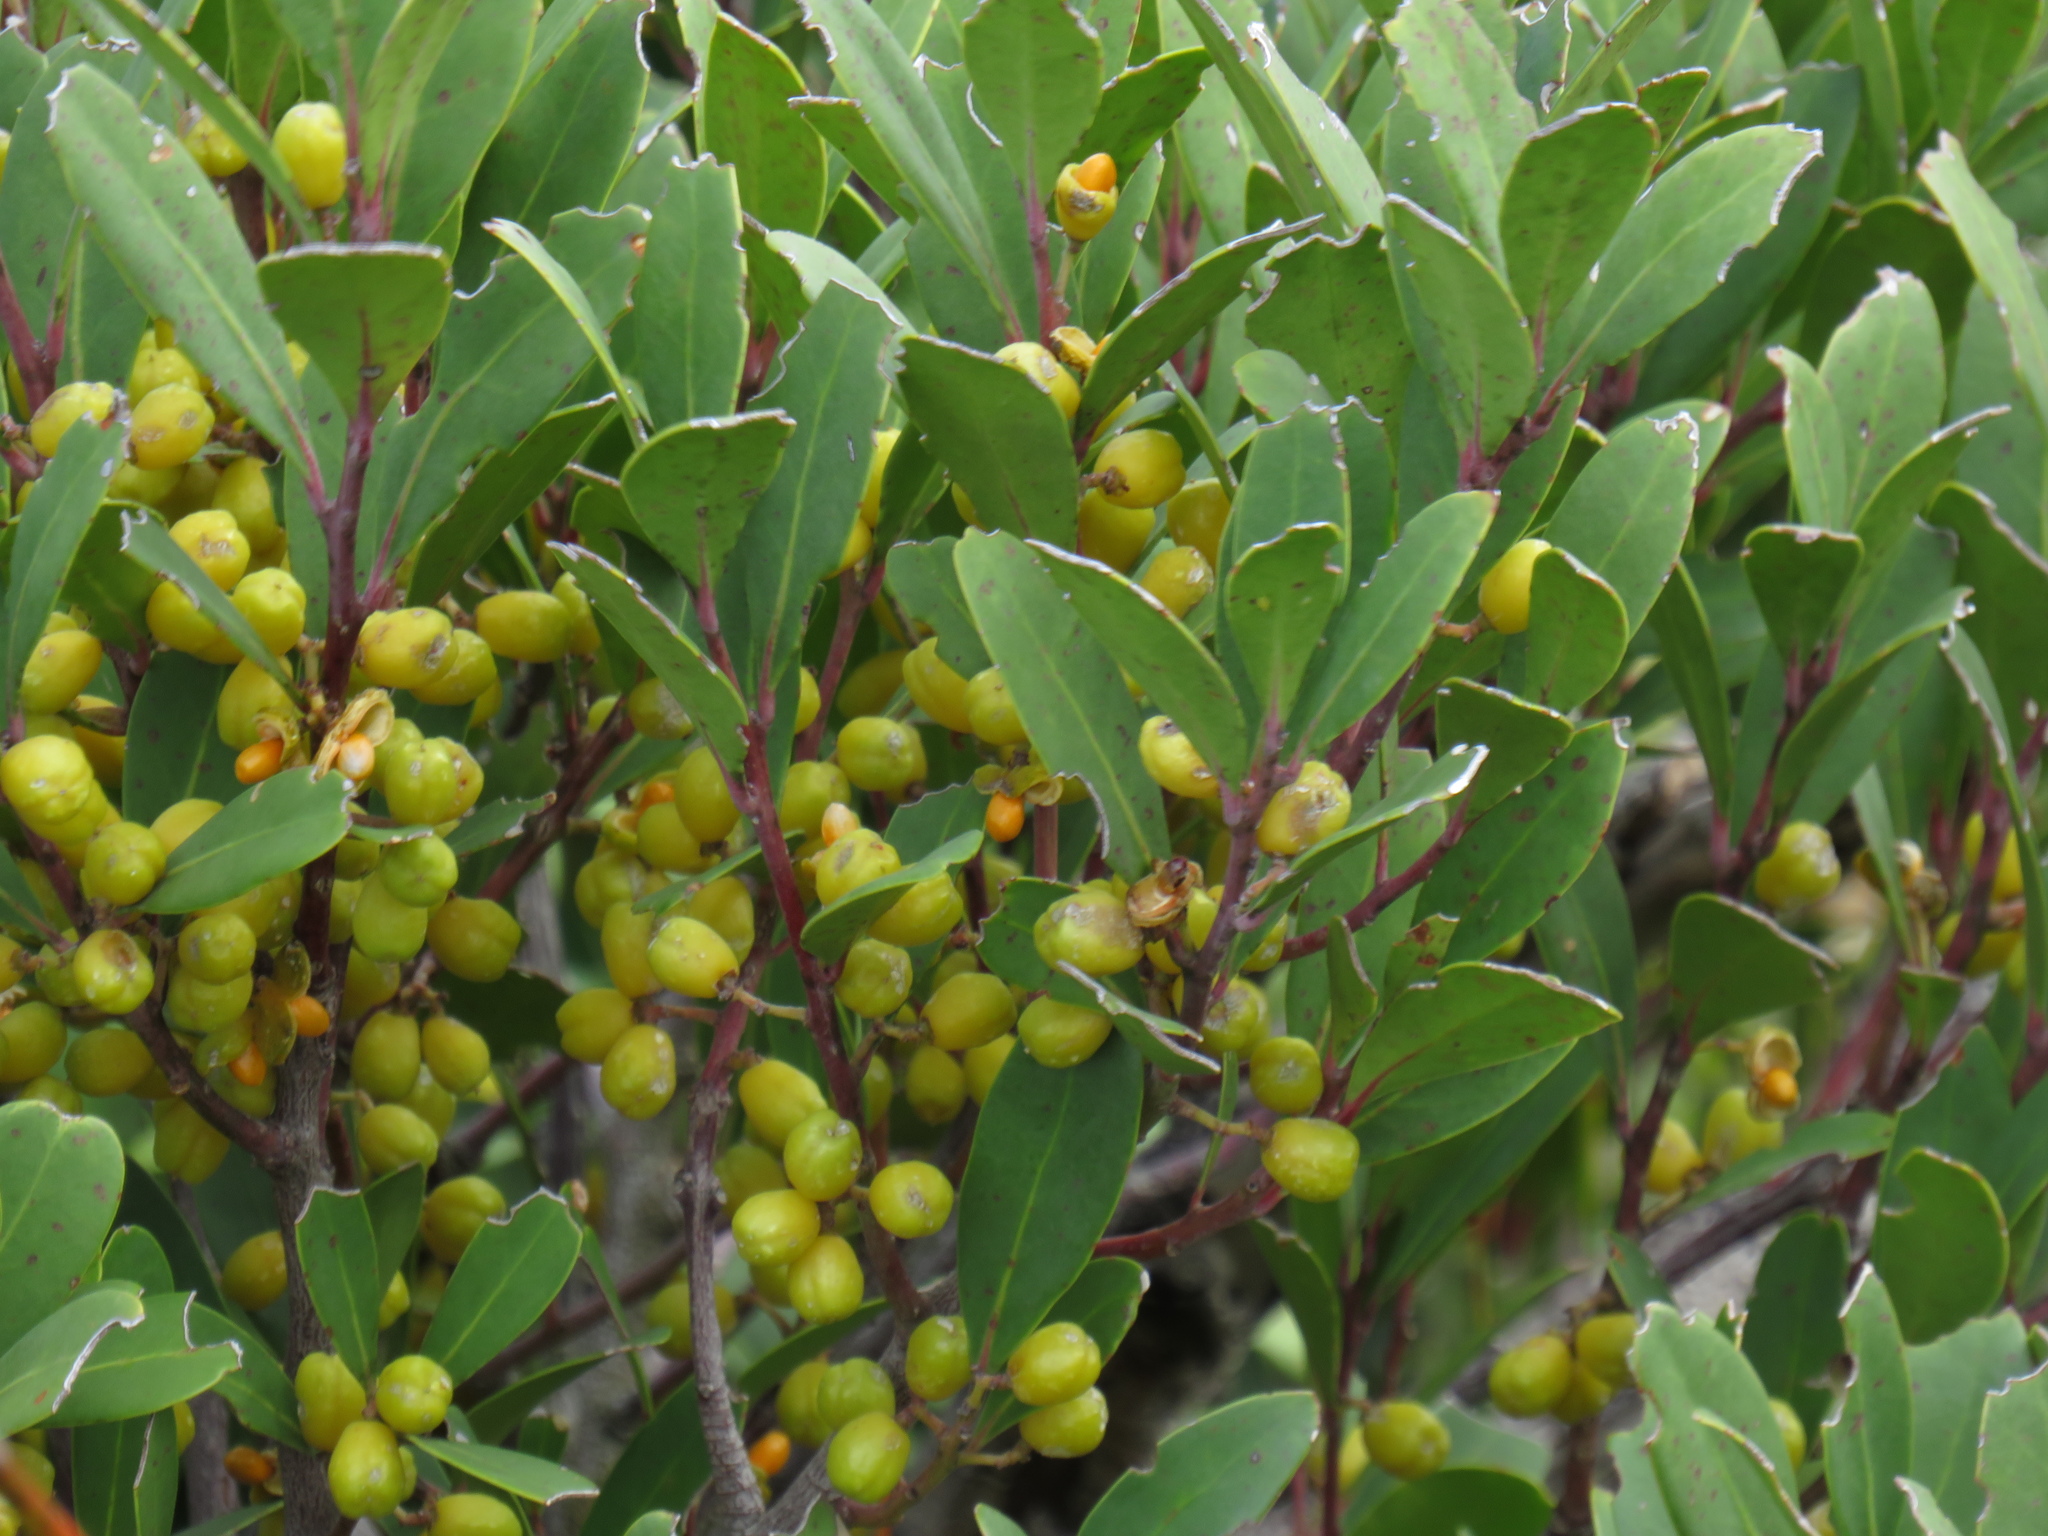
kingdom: Plantae
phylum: Tracheophyta
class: Magnoliopsida
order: Celastrales
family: Celastraceae
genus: Gymnosporia
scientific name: Gymnosporia laurina
